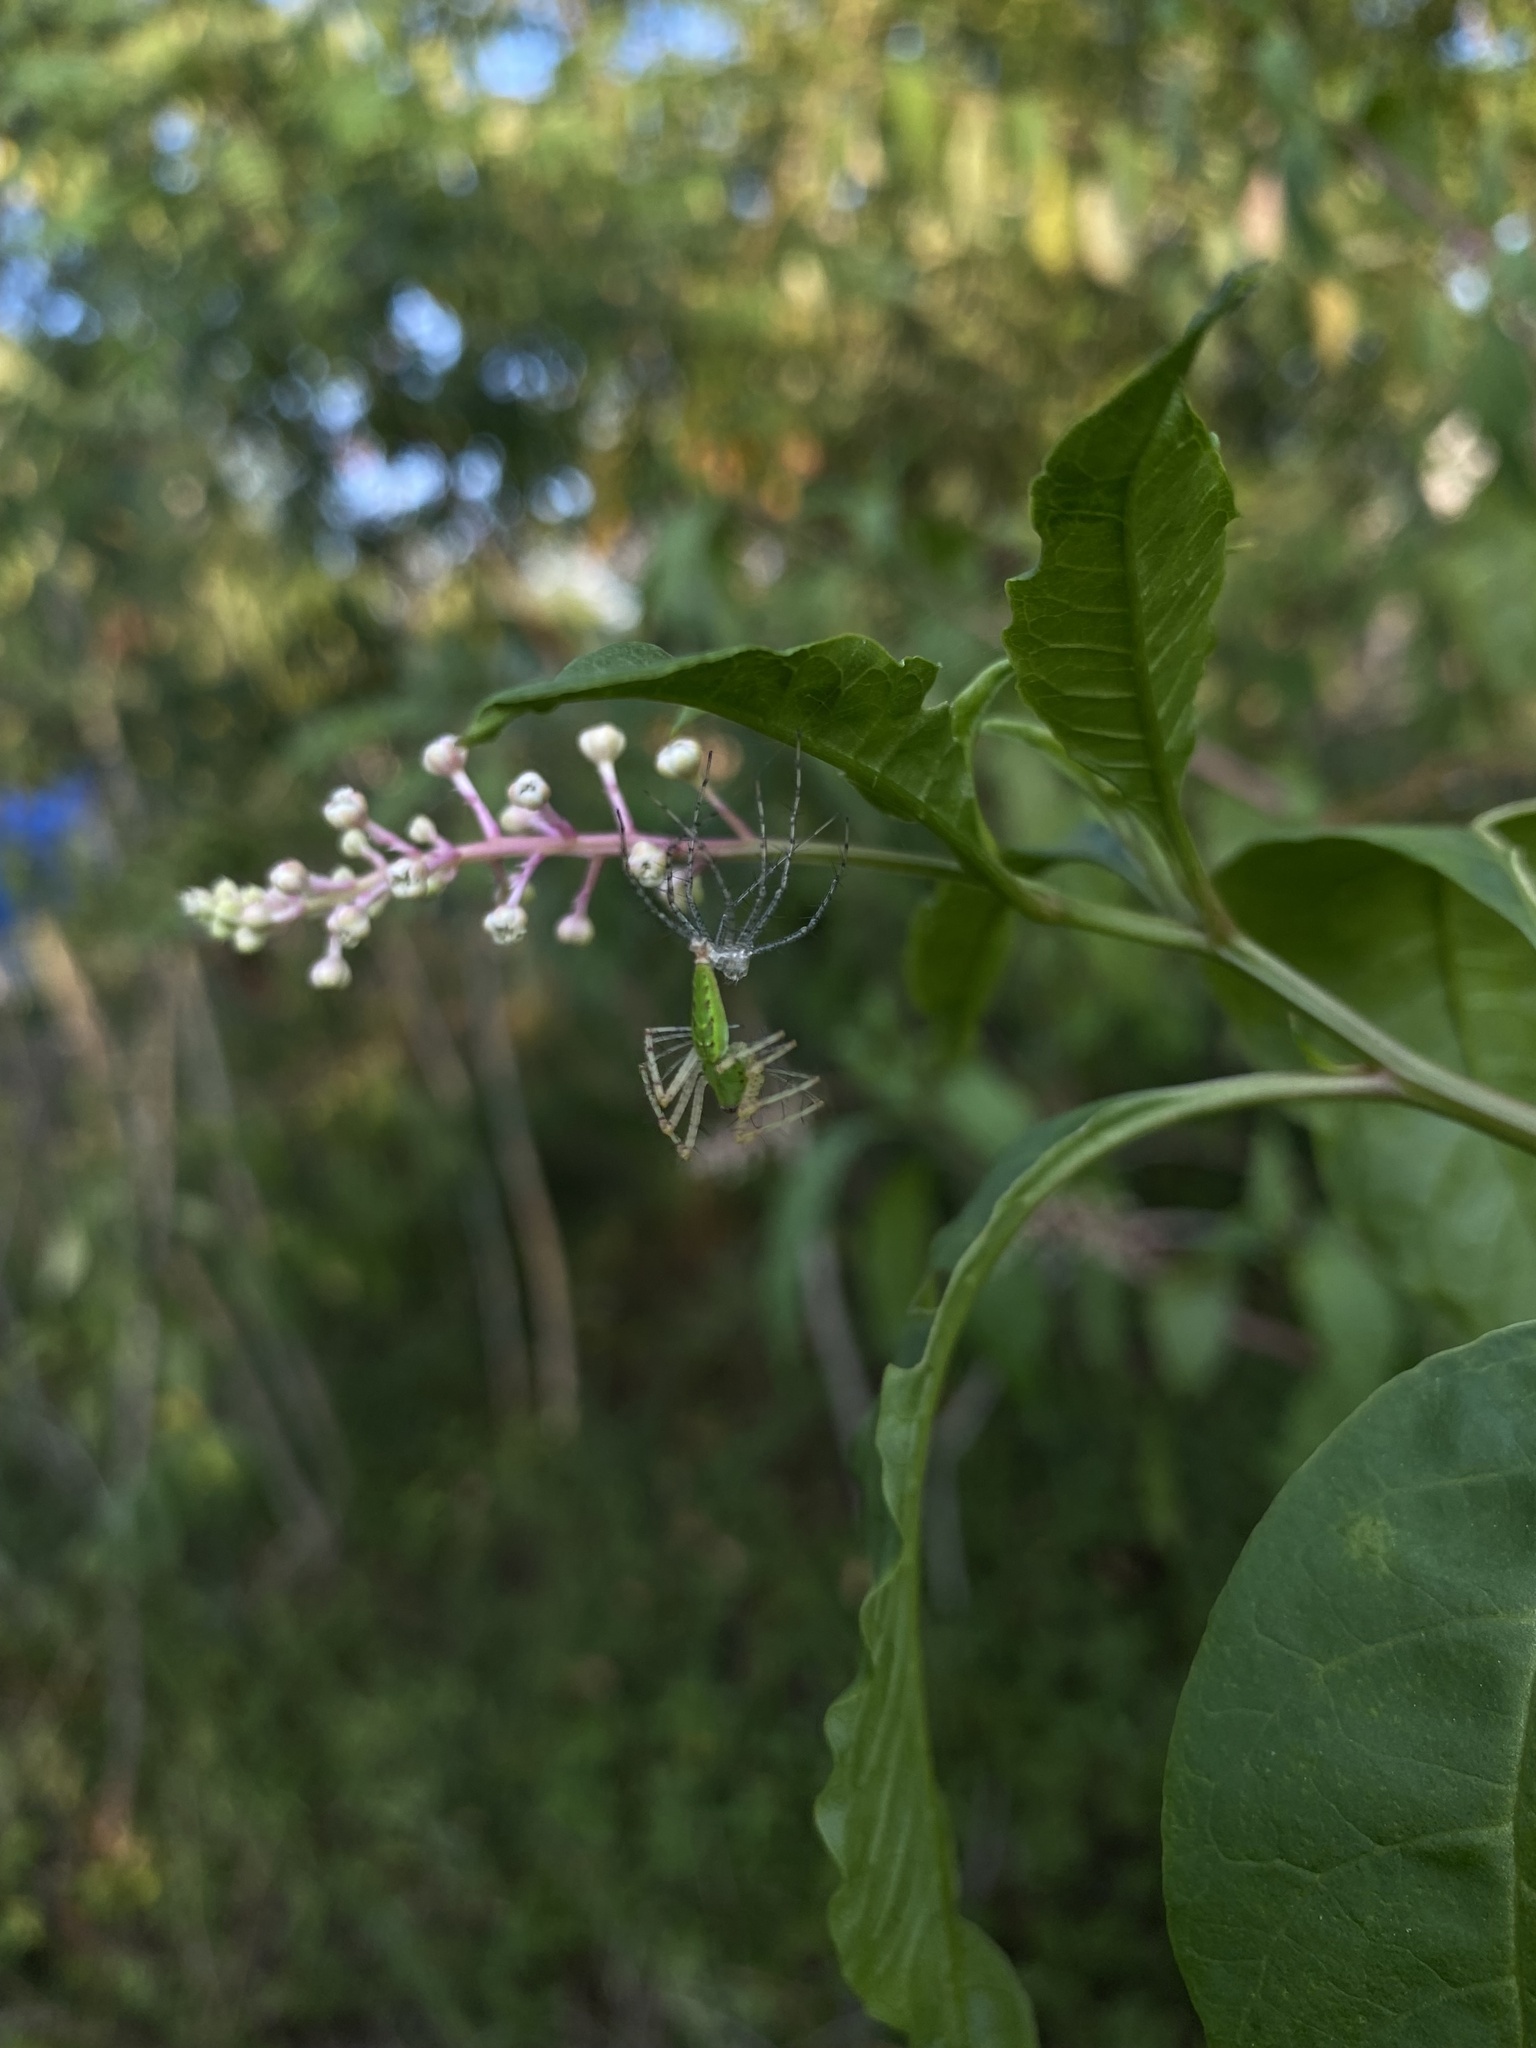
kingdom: Animalia
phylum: Arthropoda
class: Arachnida
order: Araneae
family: Oxyopidae
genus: Peucetia
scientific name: Peucetia viridans
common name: Lynx spiders
